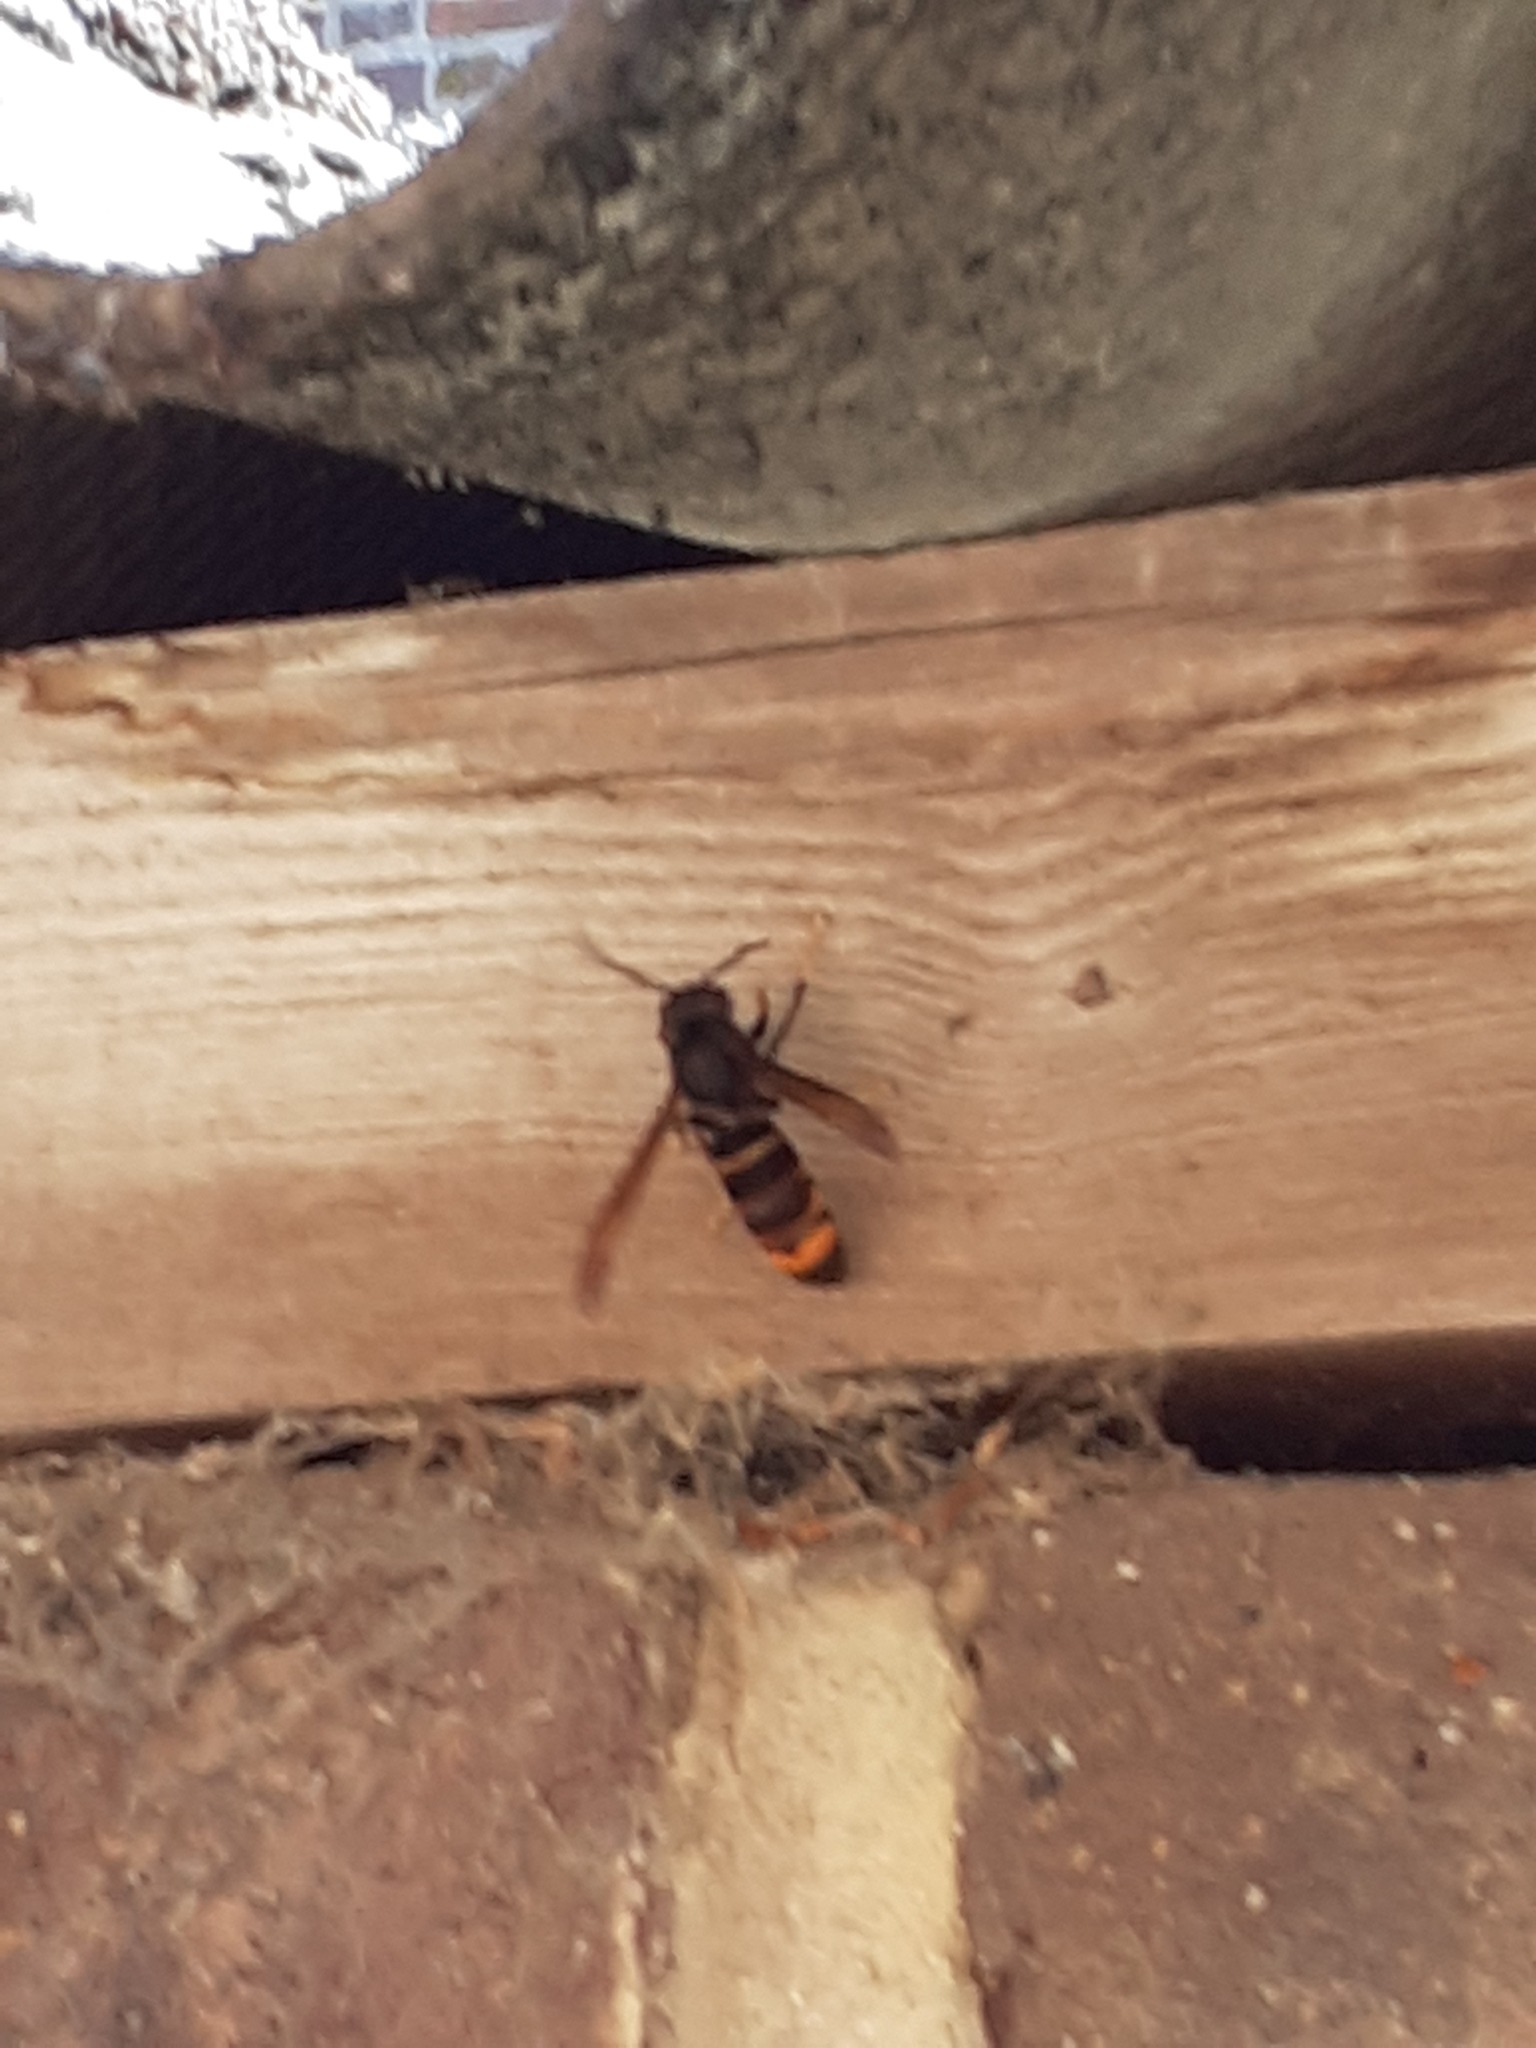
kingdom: Animalia
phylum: Arthropoda
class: Insecta
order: Hymenoptera
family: Vespidae
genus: Vespa
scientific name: Vespa velutina
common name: Asian hornet
